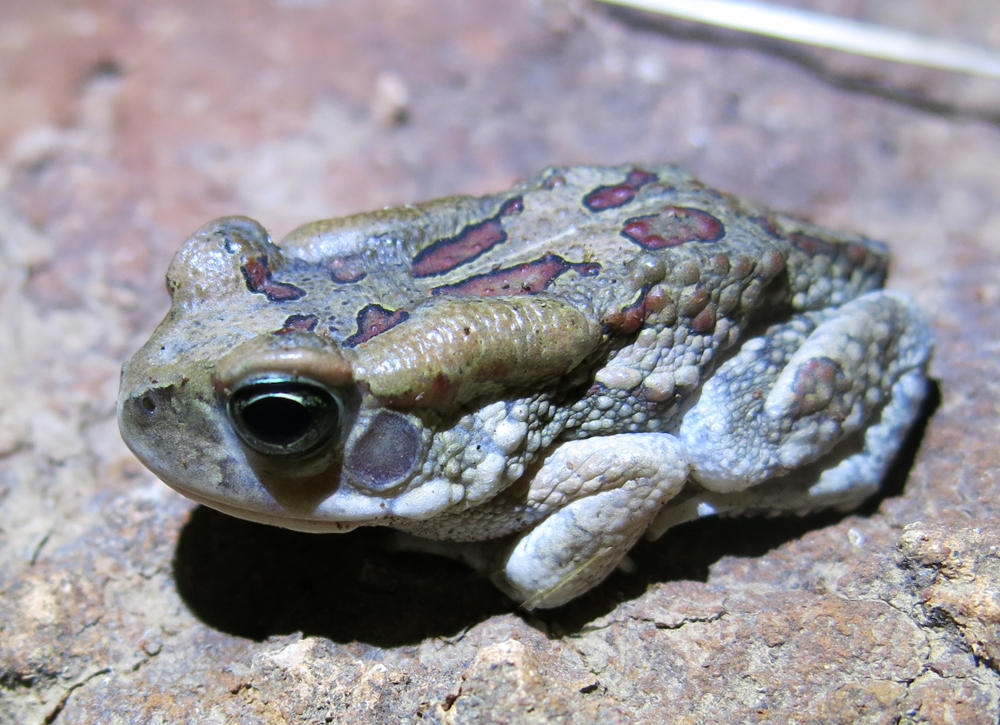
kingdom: Animalia
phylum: Chordata
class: Amphibia
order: Anura
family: Bufonidae
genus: Sclerophrys
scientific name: Sclerophrys garmani
